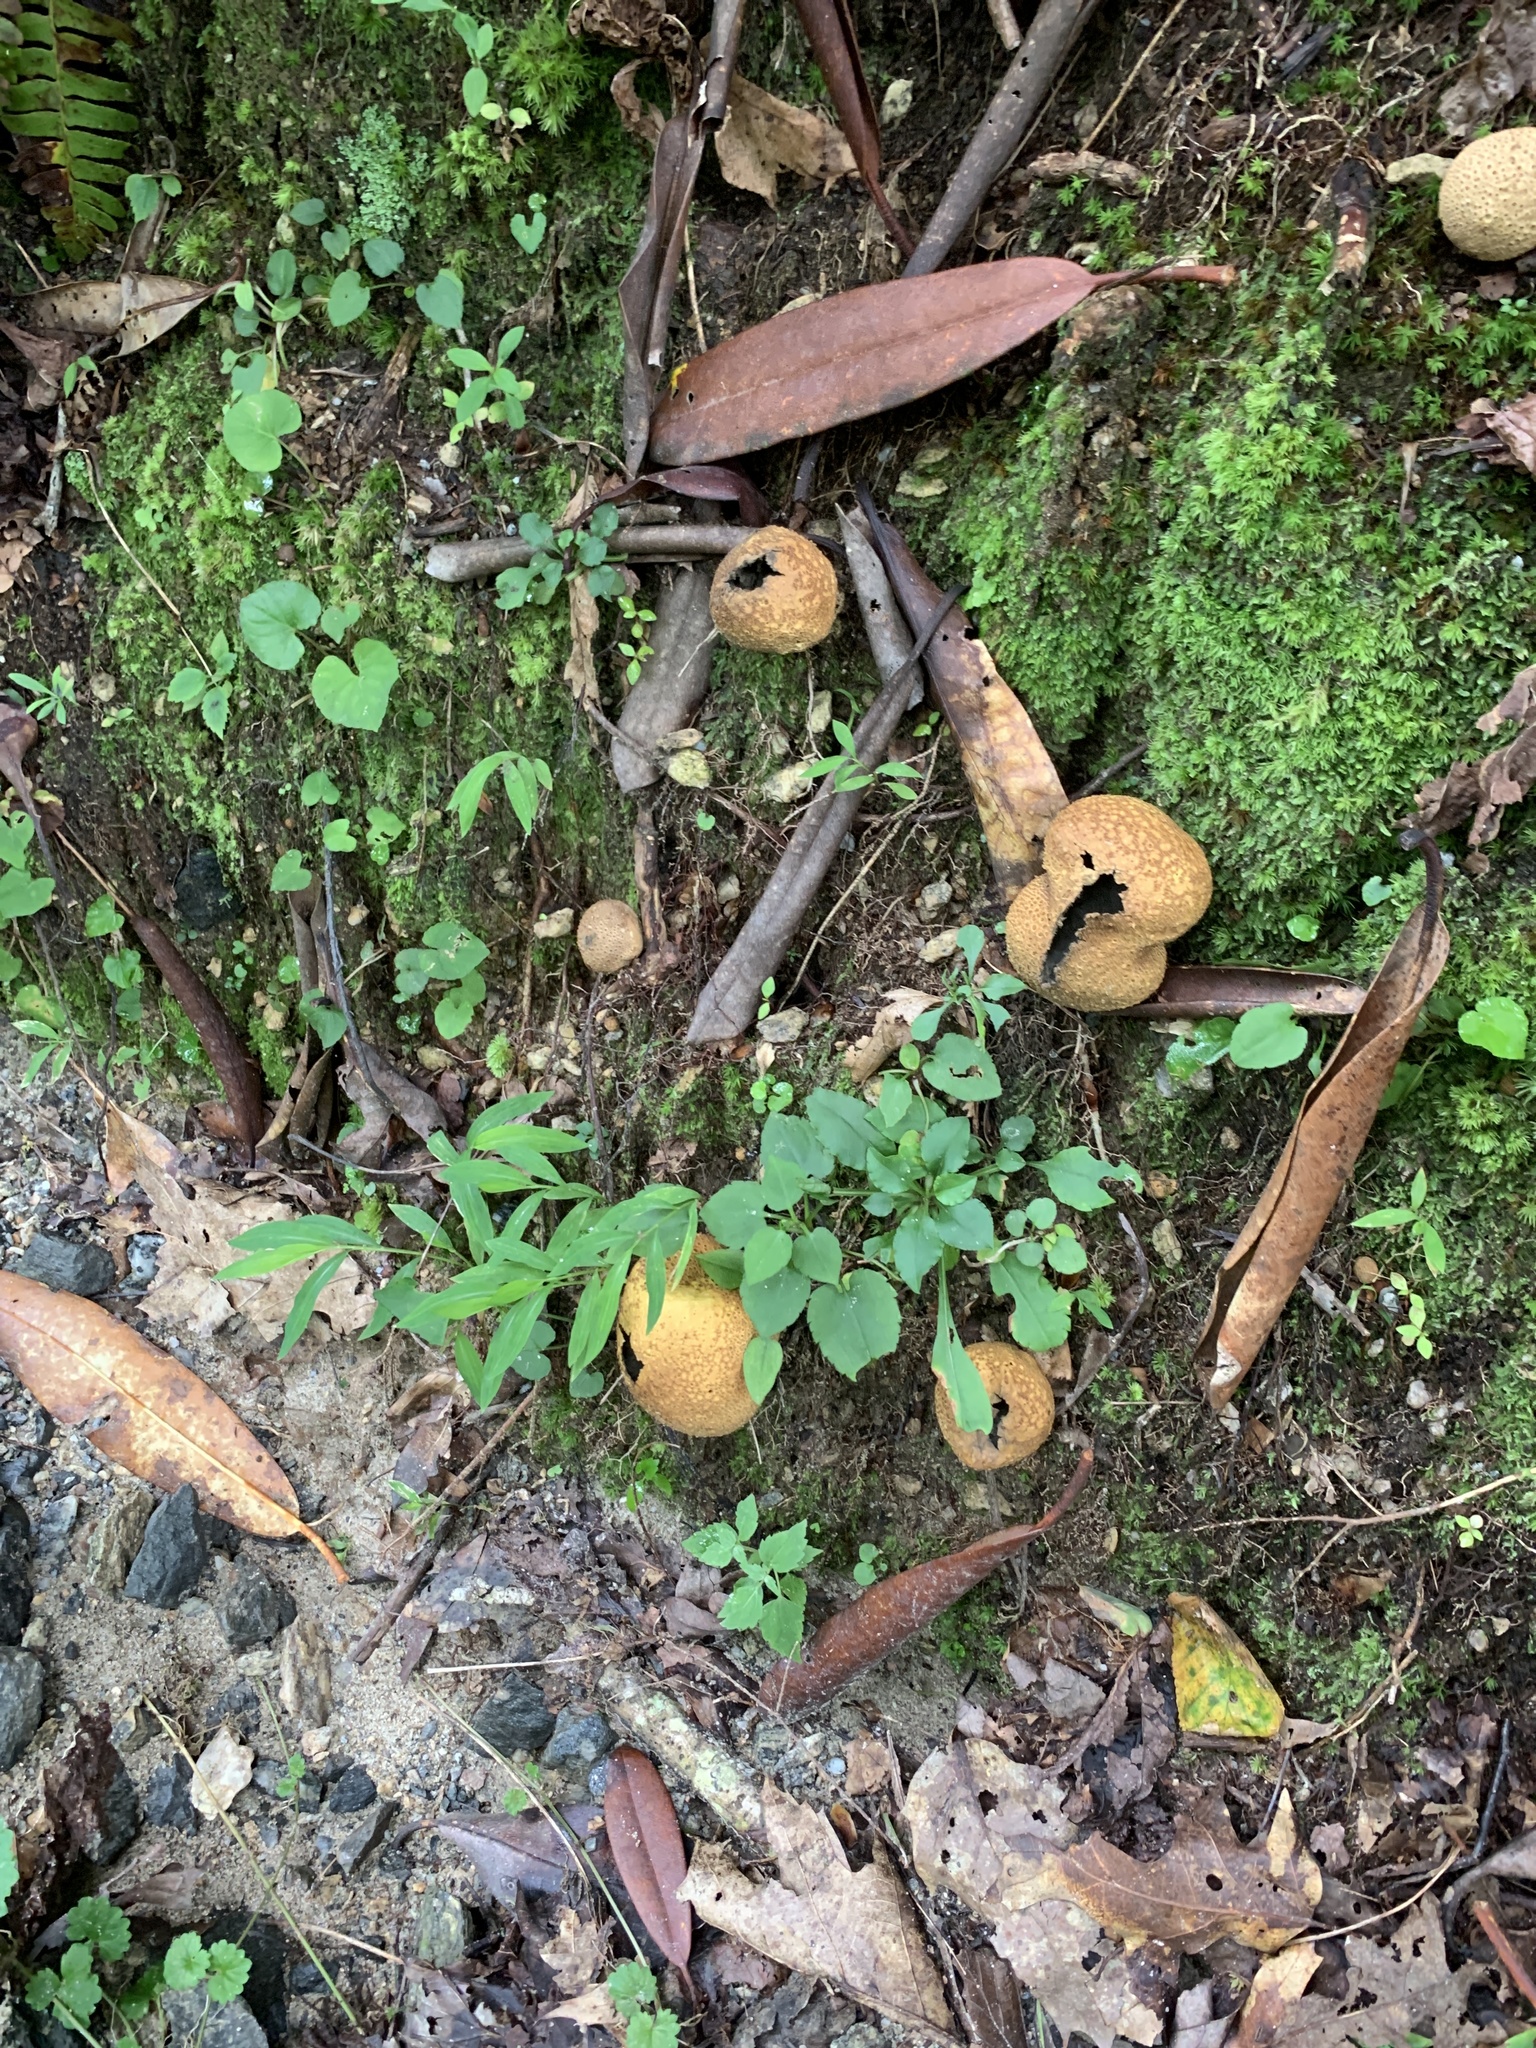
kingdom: Fungi
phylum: Basidiomycota
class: Agaricomycetes
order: Boletales
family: Sclerodermataceae
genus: Scleroderma
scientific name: Scleroderma citrinum
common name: Common earthball
